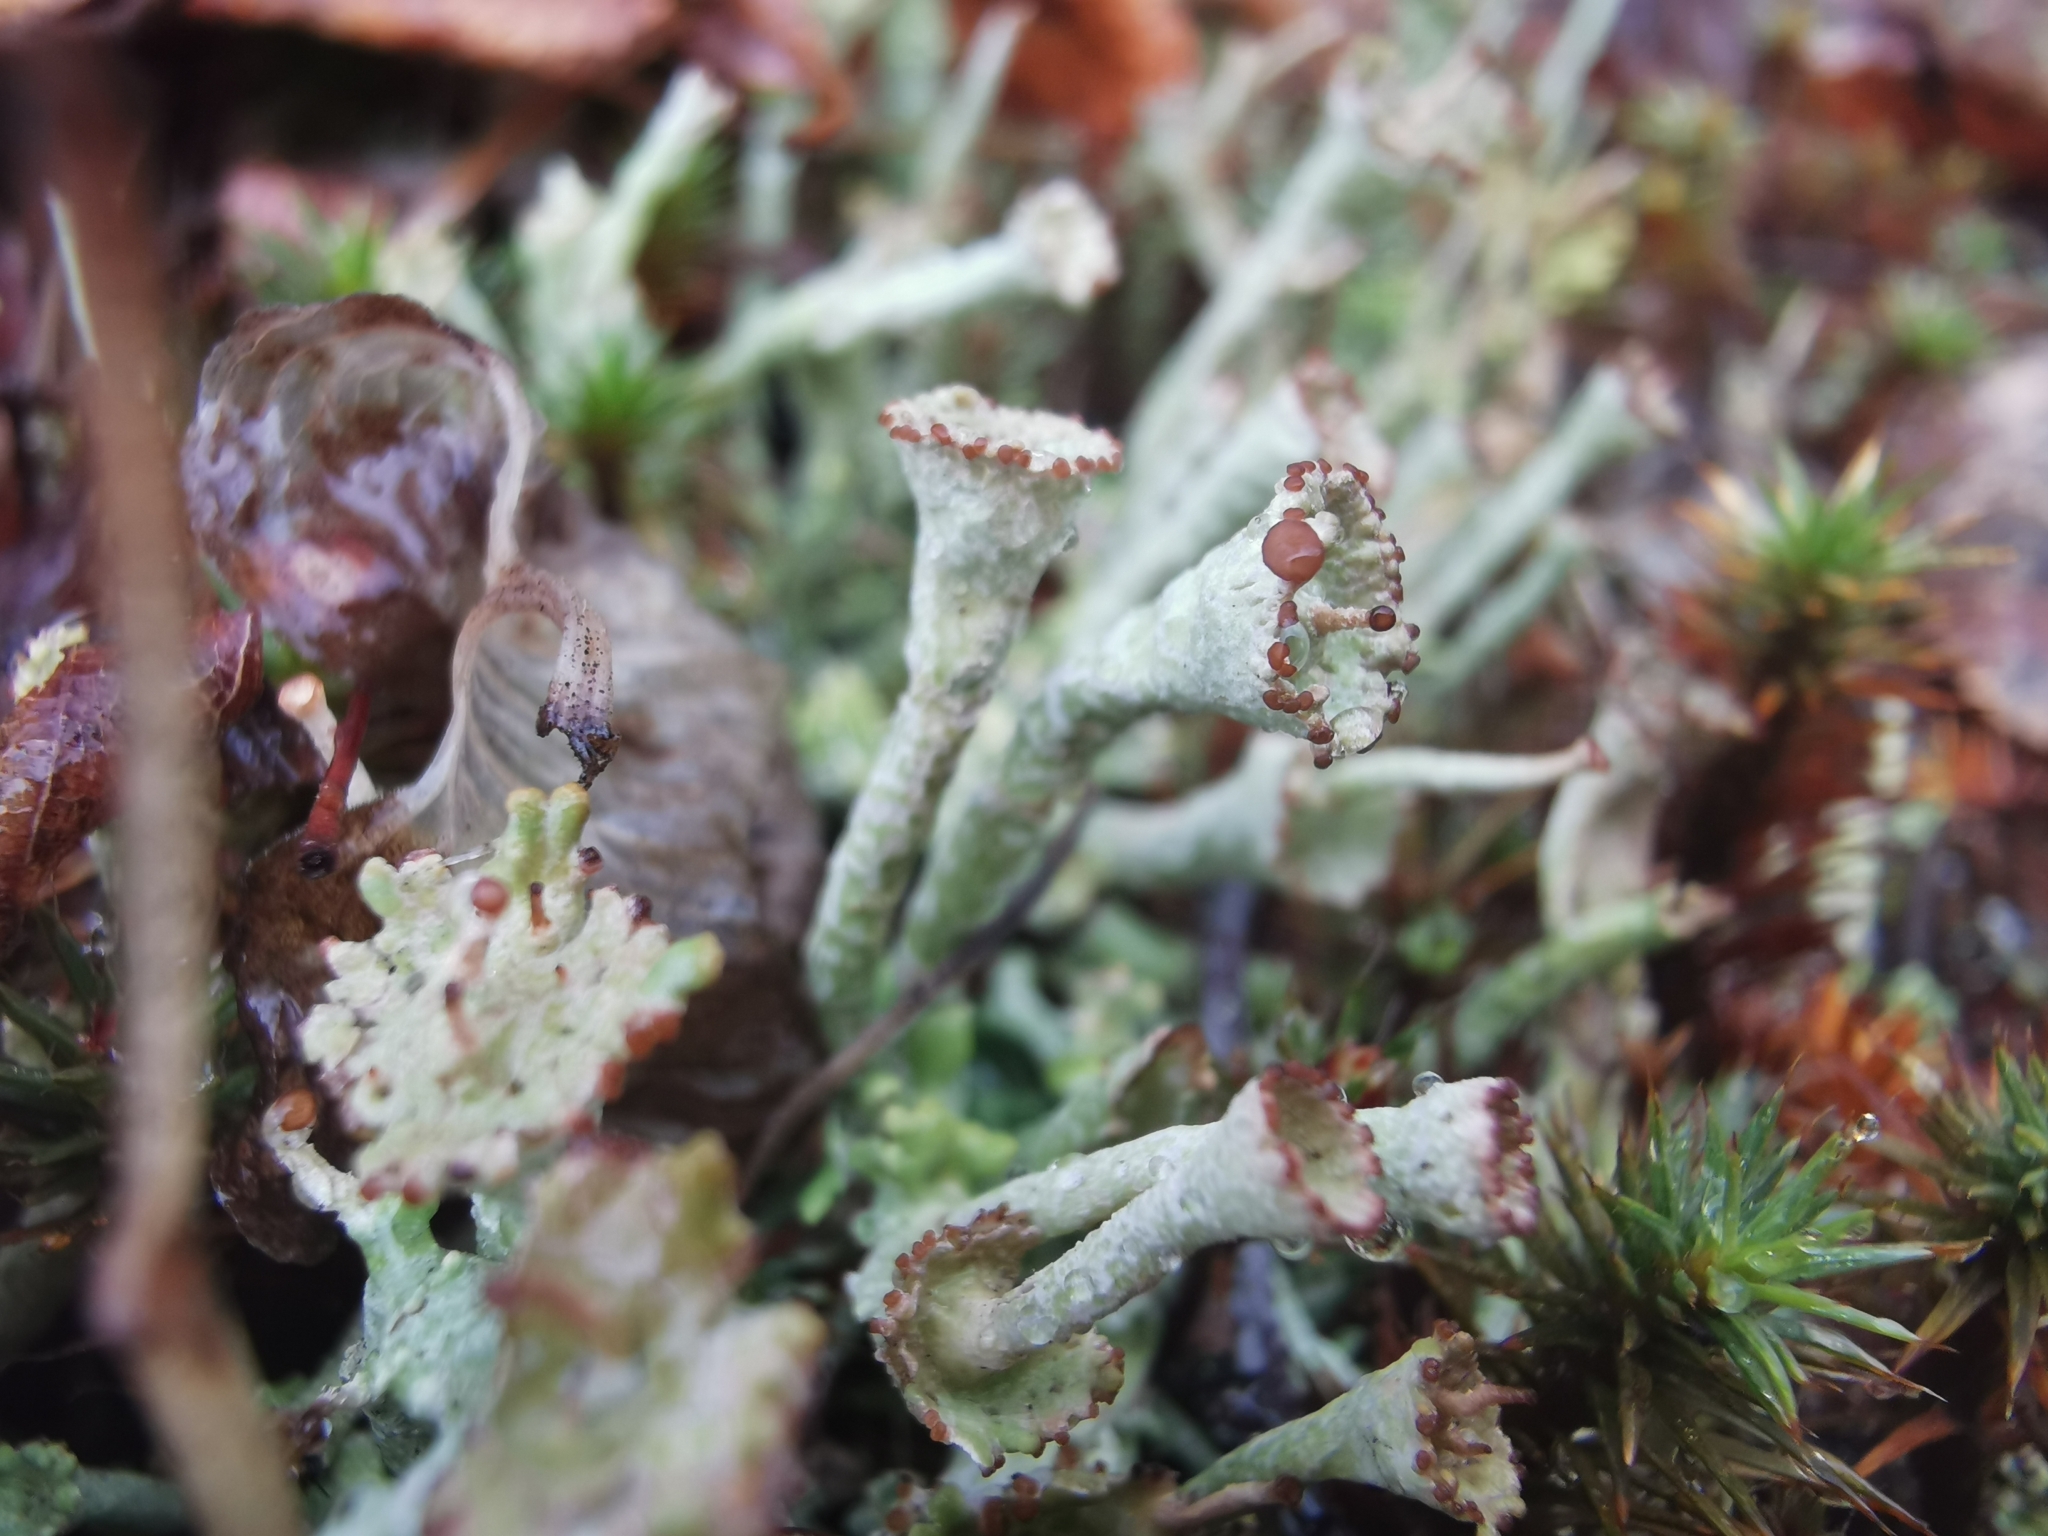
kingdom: Fungi
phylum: Ascomycota
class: Lecanoromycetes
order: Lecanorales
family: Cladoniaceae
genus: Cladonia
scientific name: Cladonia gracilis
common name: Smooth clad lichen
